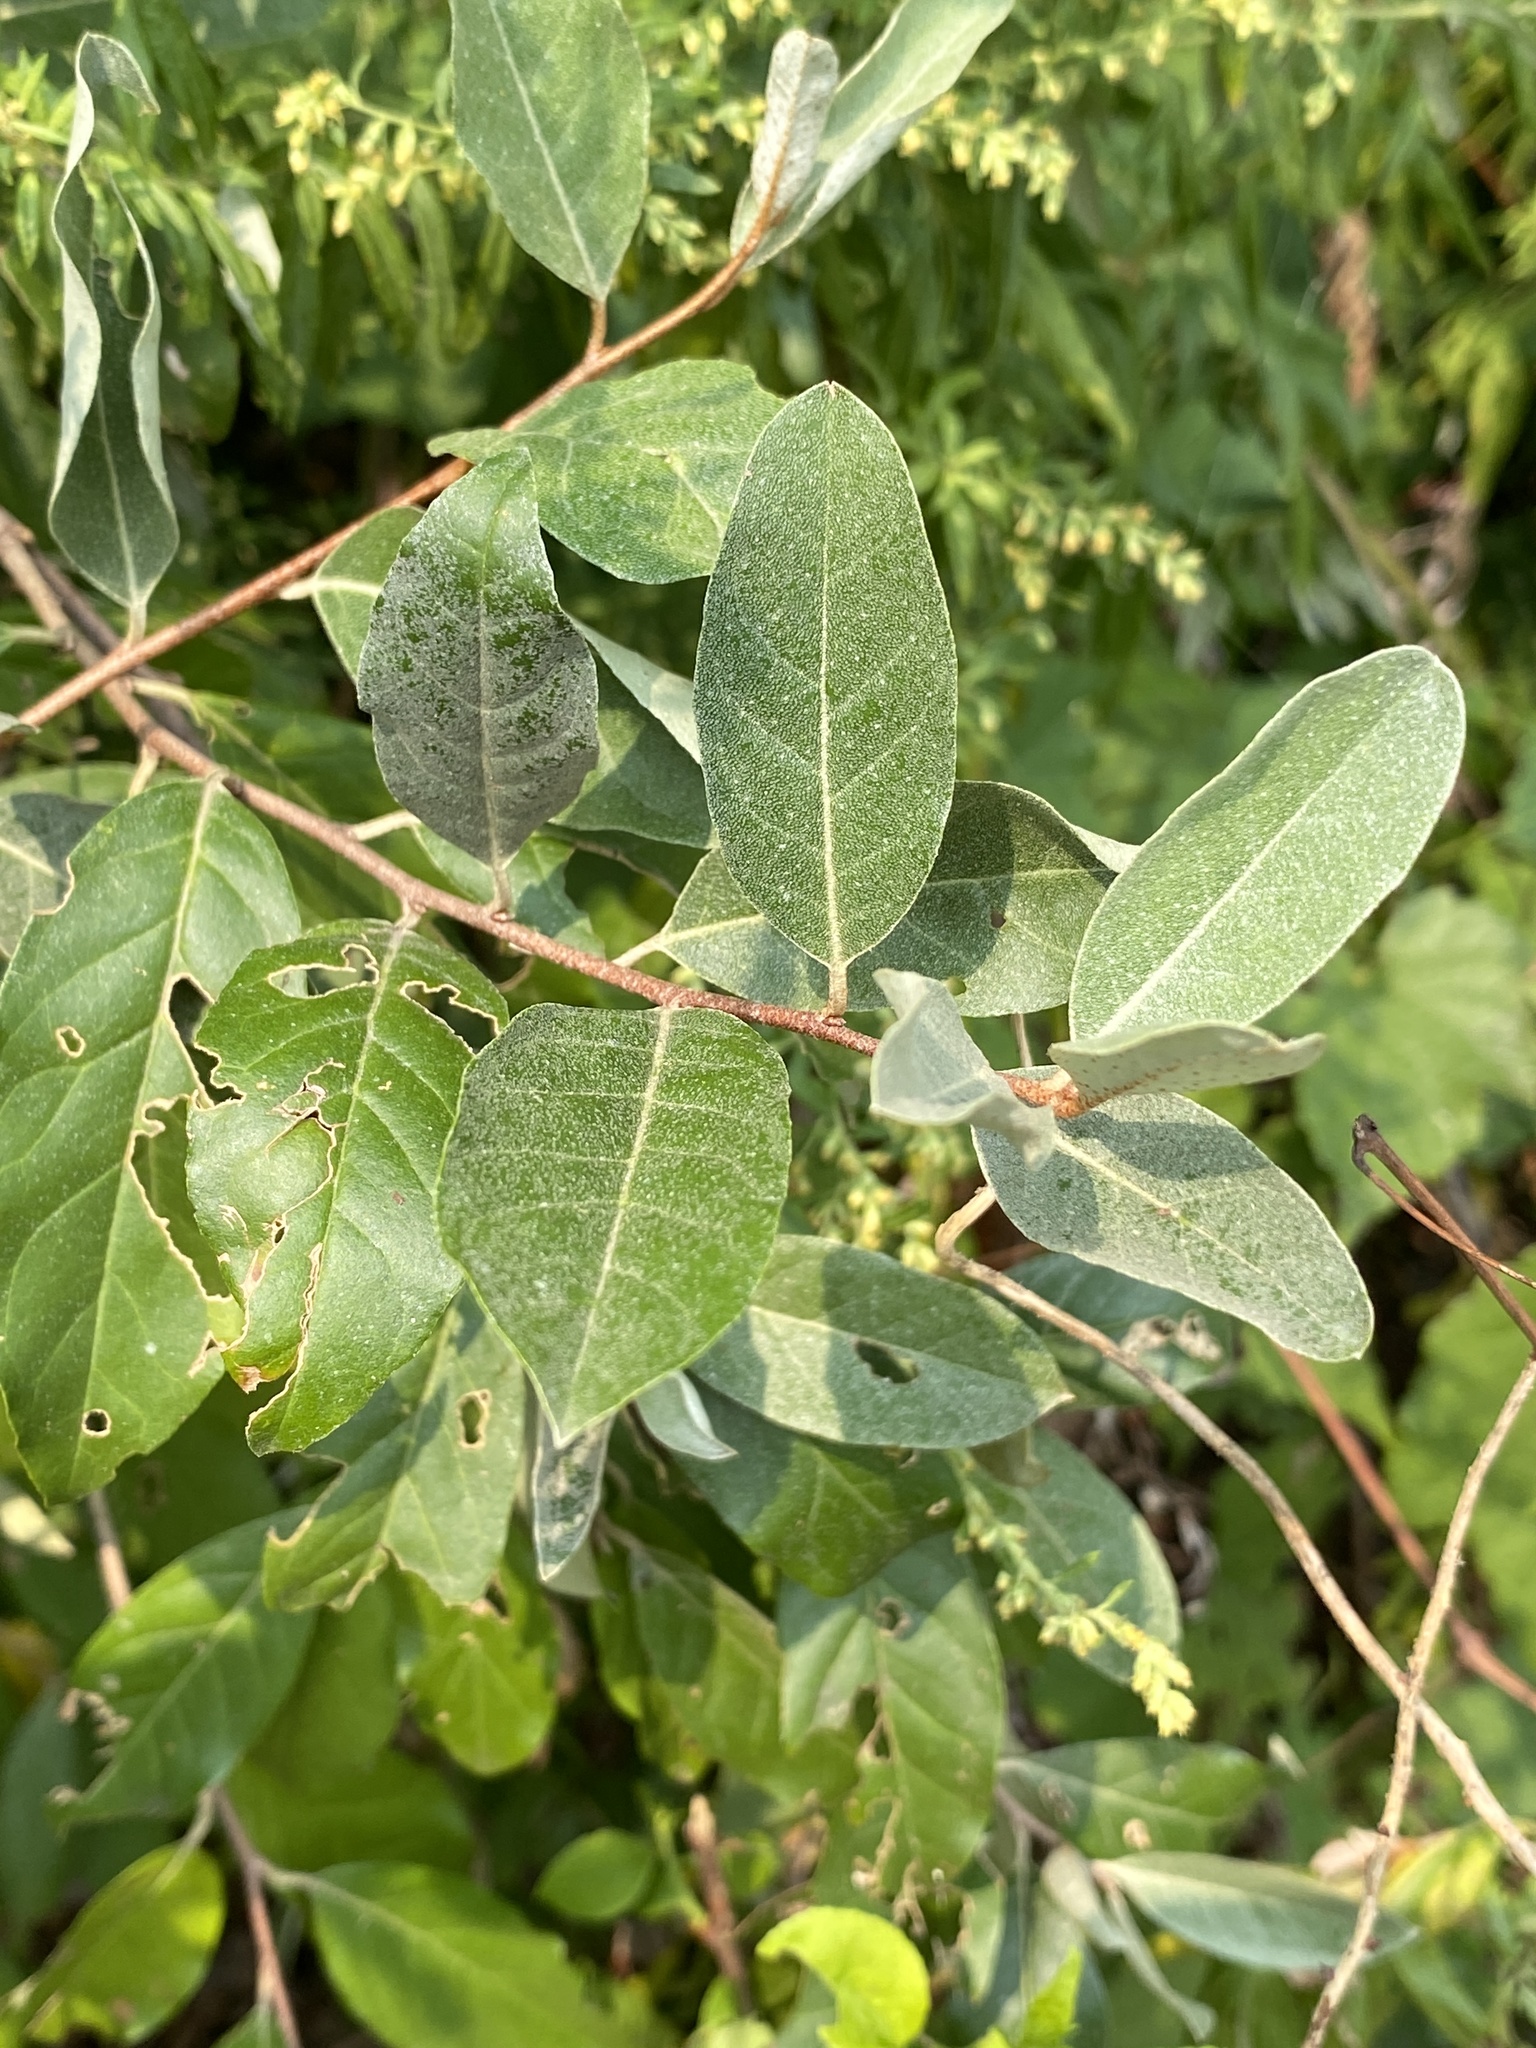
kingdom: Plantae
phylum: Tracheophyta
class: Magnoliopsida
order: Rosales
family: Elaeagnaceae
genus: Elaeagnus
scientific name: Elaeagnus umbellata
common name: Autumn olive
